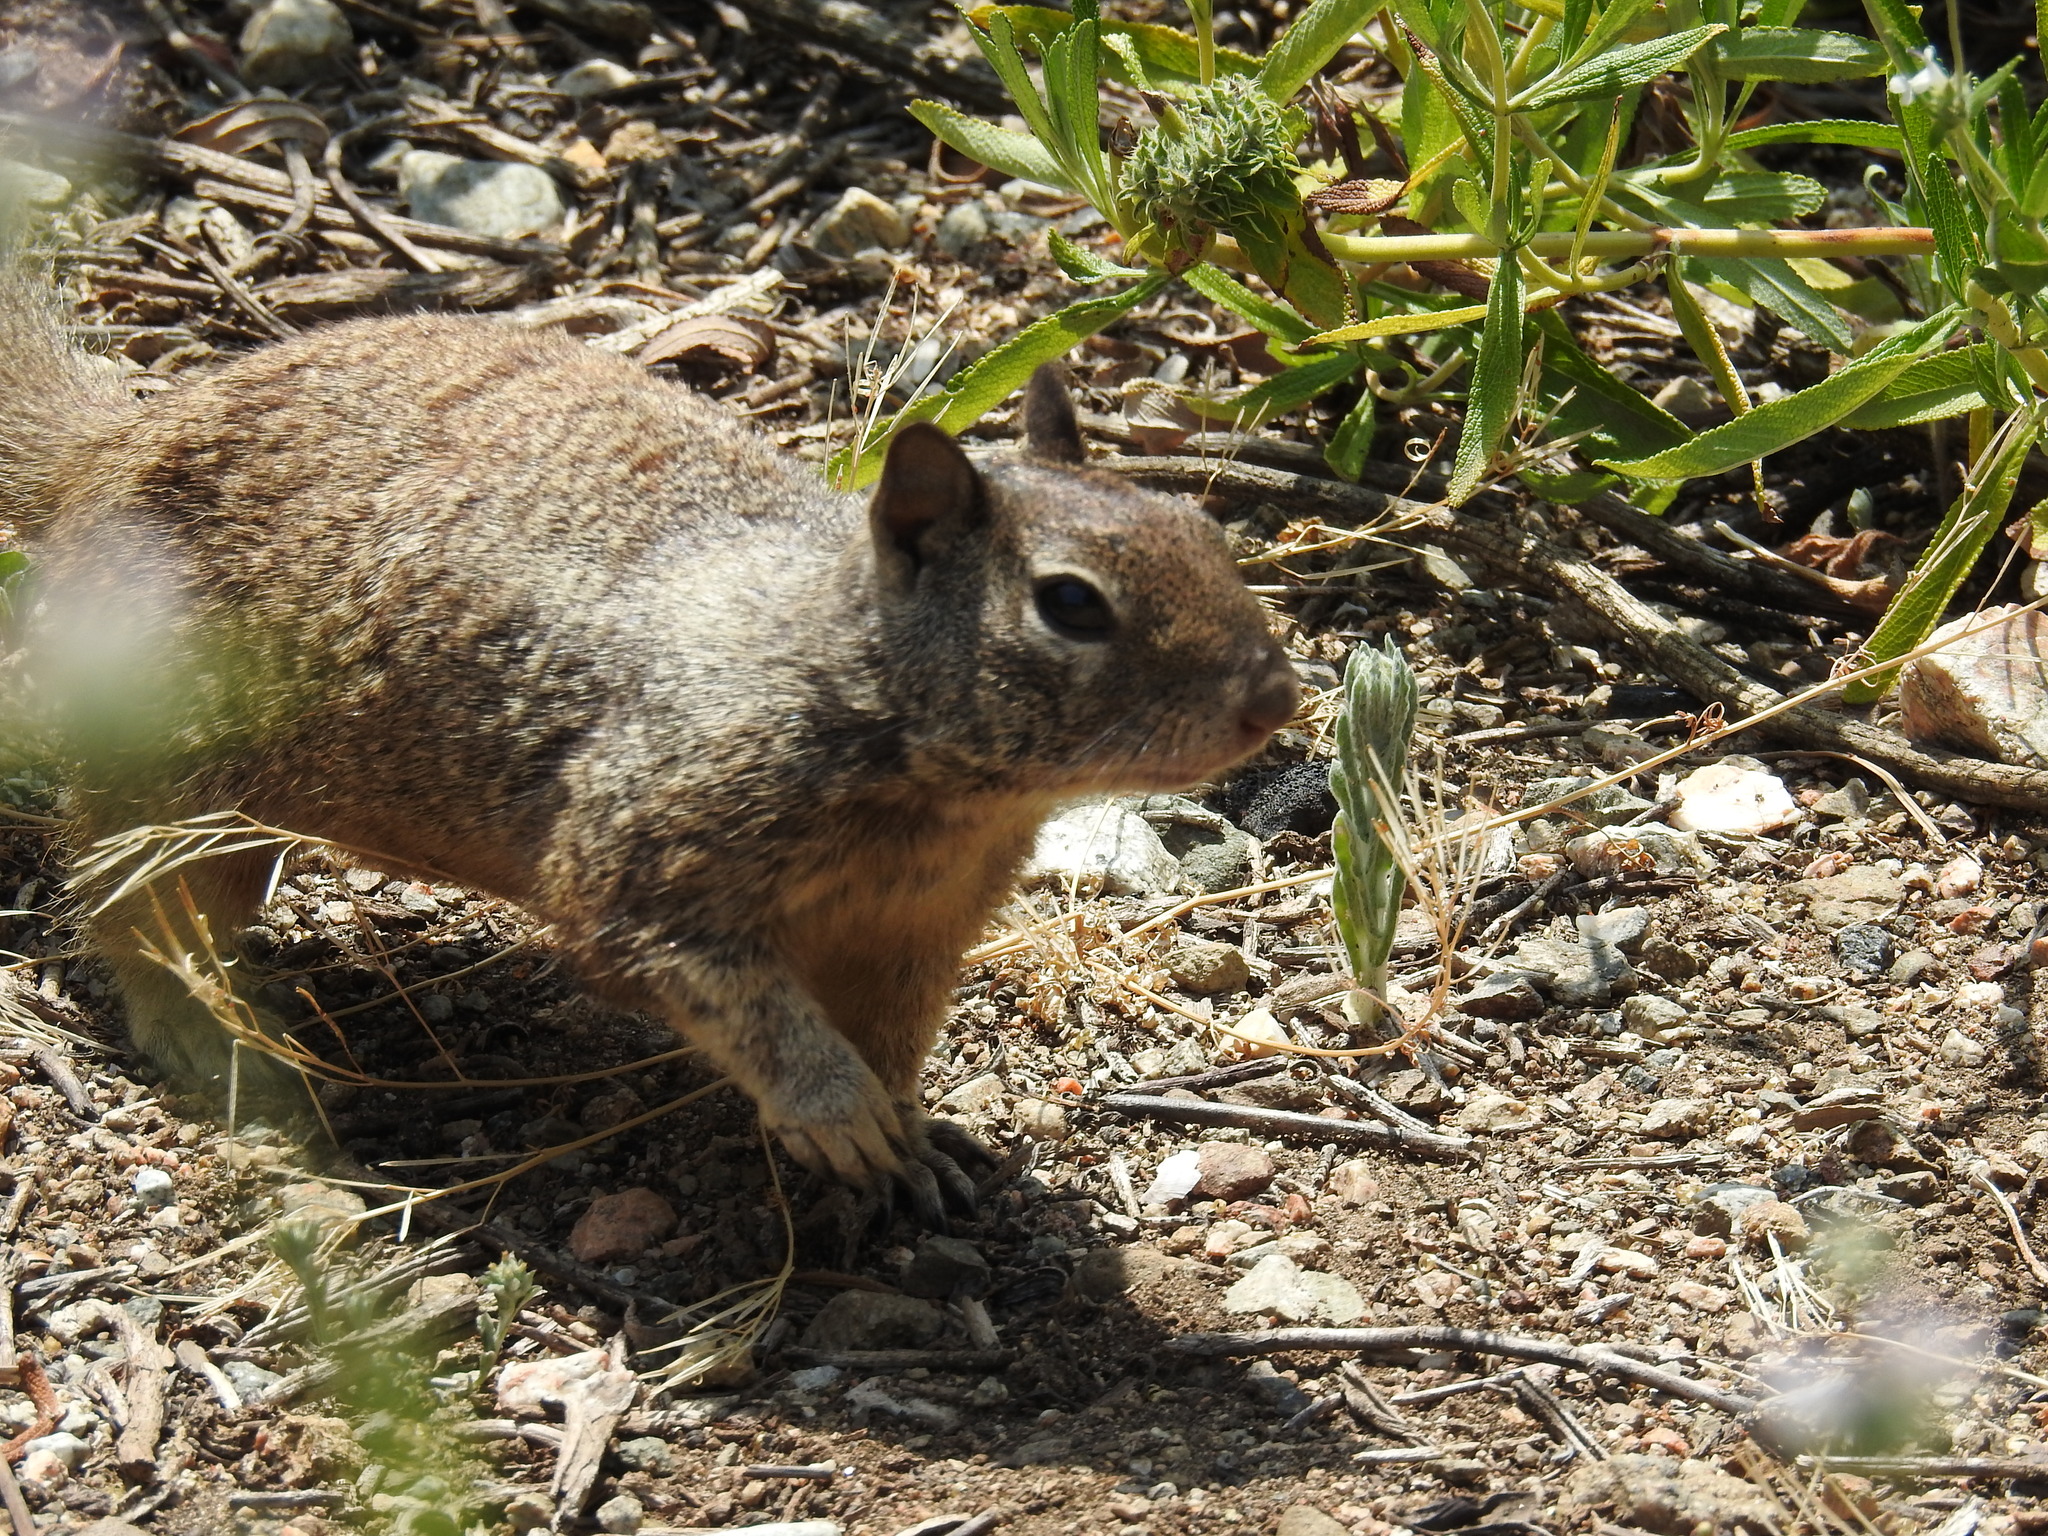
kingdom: Animalia
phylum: Chordata
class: Mammalia
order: Rodentia
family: Sciuridae
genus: Otospermophilus
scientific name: Otospermophilus beecheyi
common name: California ground squirrel
